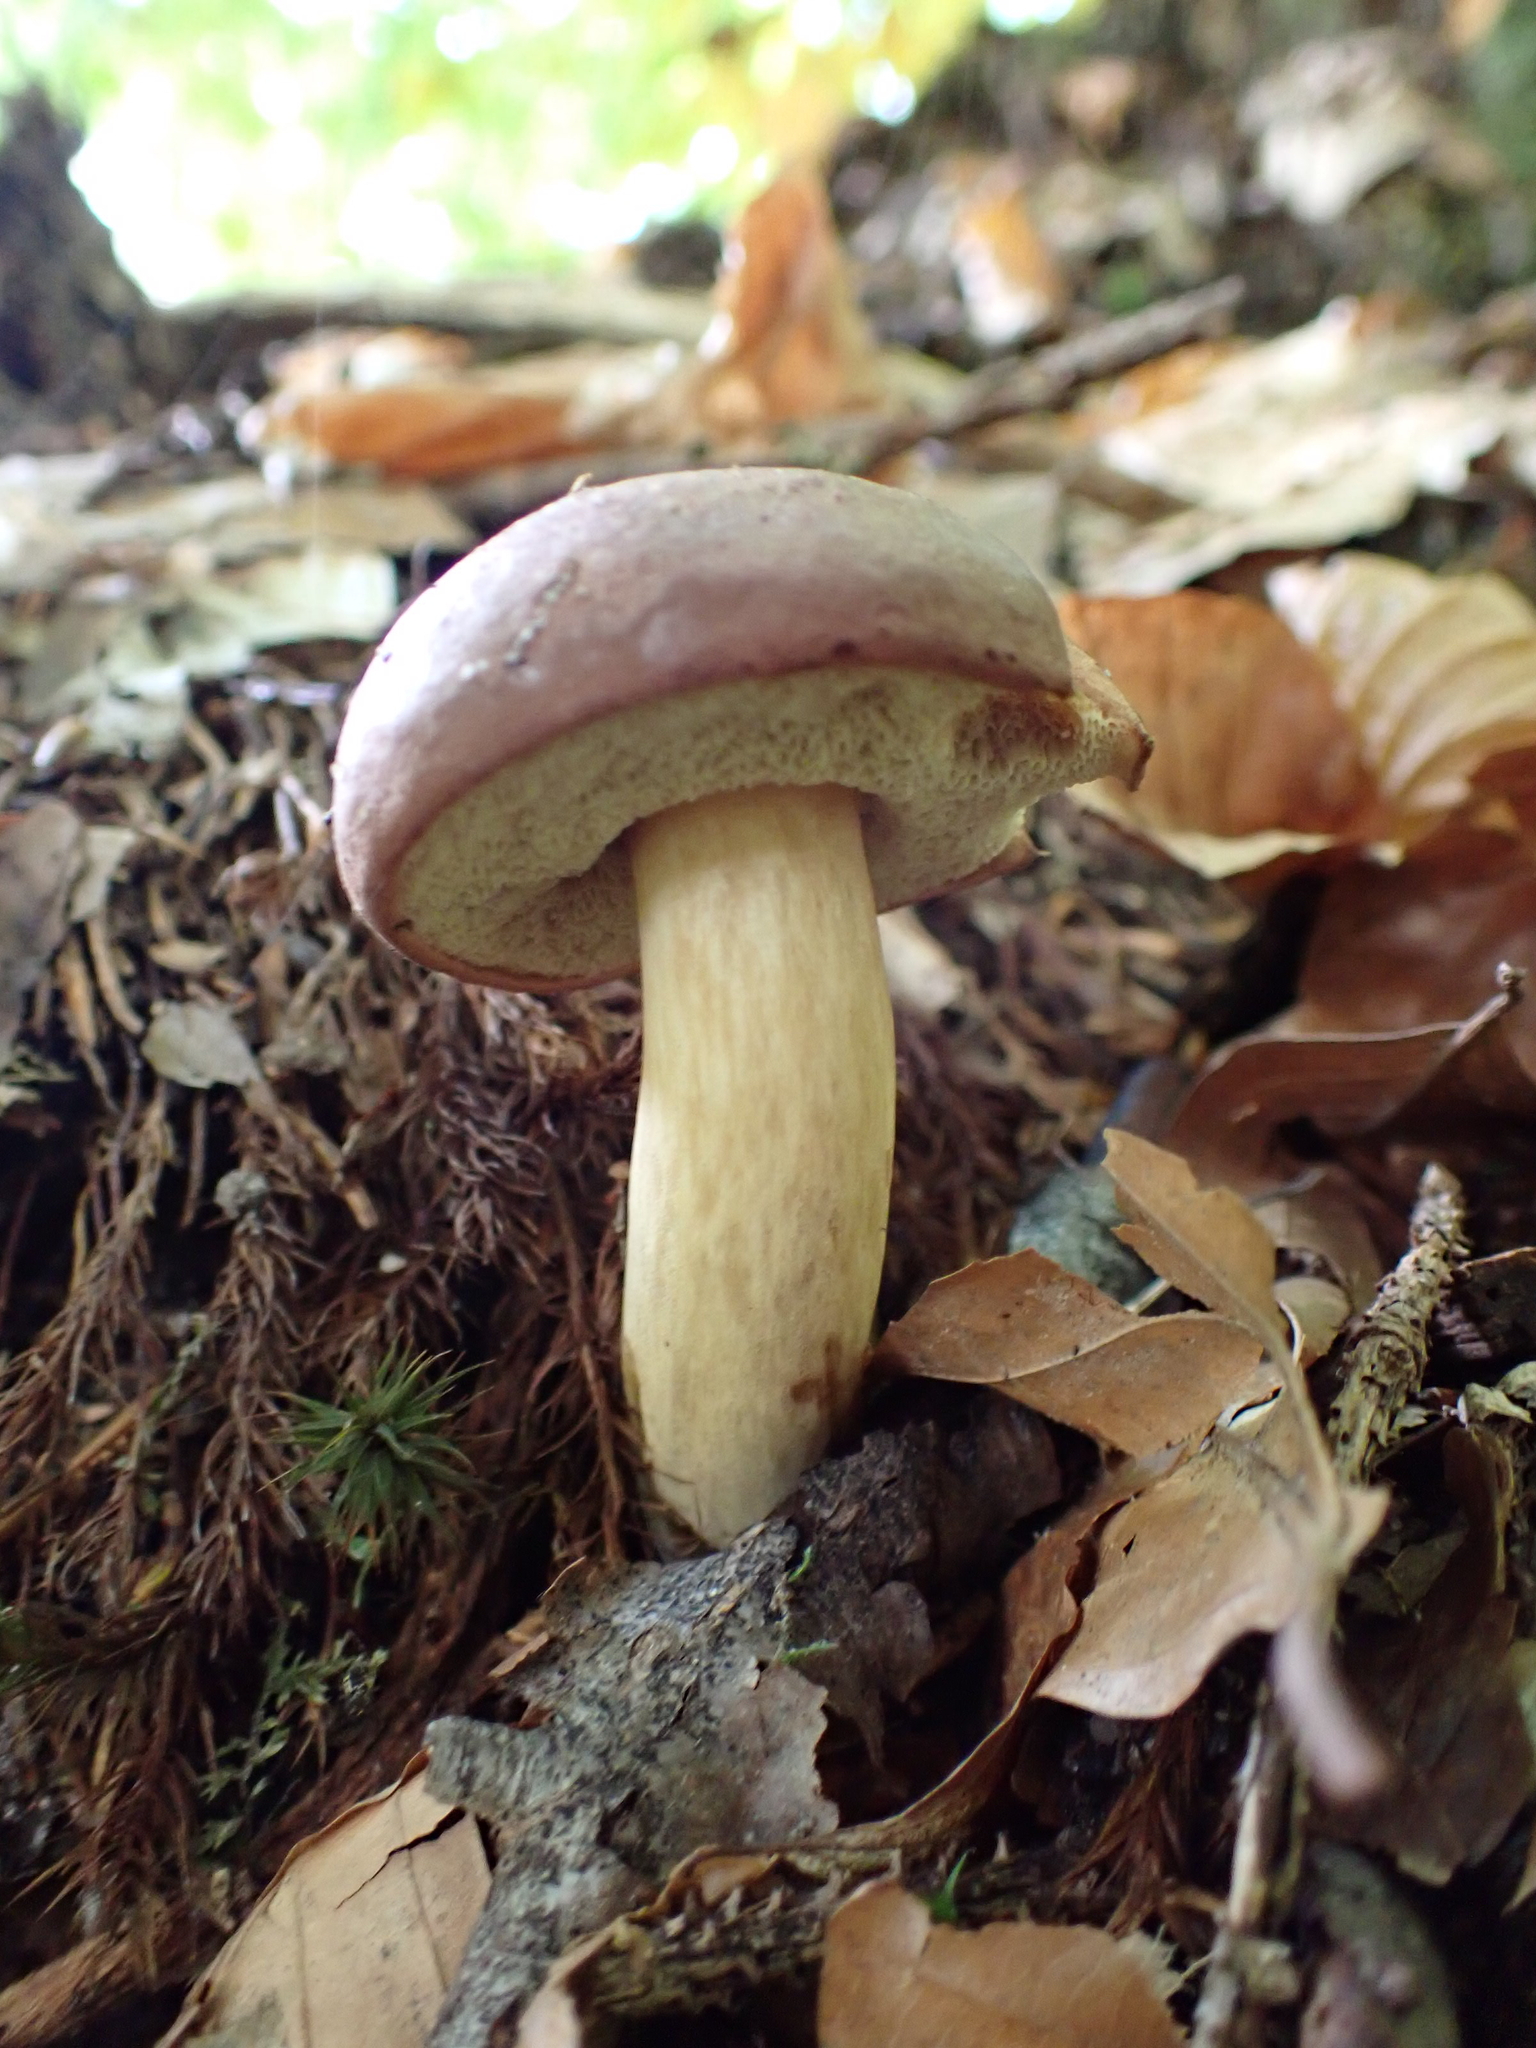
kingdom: Fungi
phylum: Basidiomycota
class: Agaricomycetes
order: Boletales
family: Boletaceae
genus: Imleria
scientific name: Imleria badia
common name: Bay bolete
